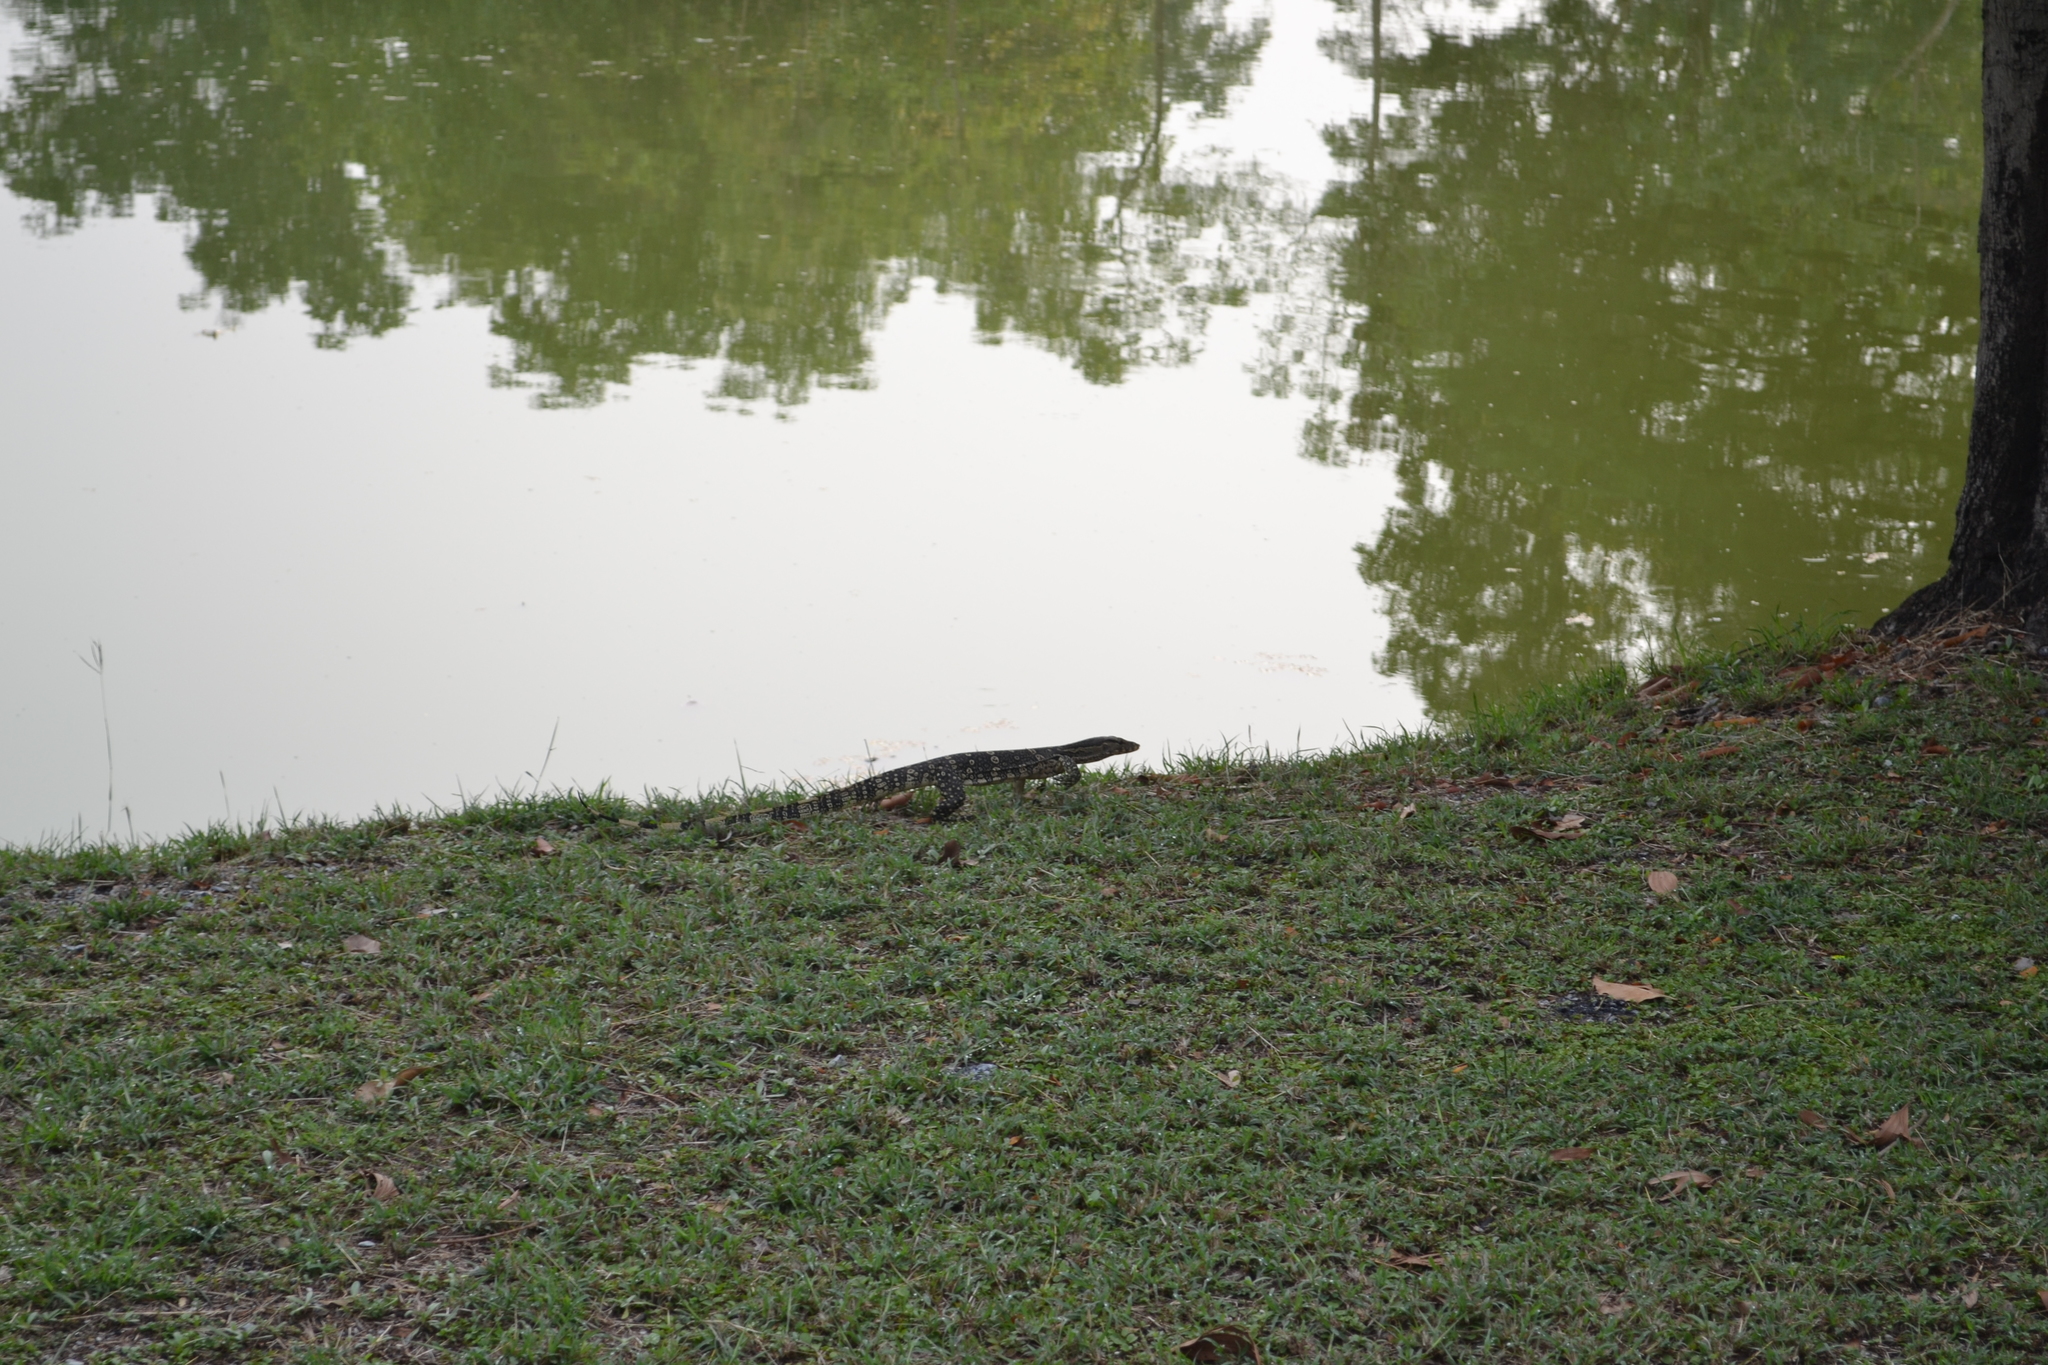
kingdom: Animalia
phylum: Chordata
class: Squamata
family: Varanidae
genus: Varanus
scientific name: Varanus salvator
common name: Common water monitor
